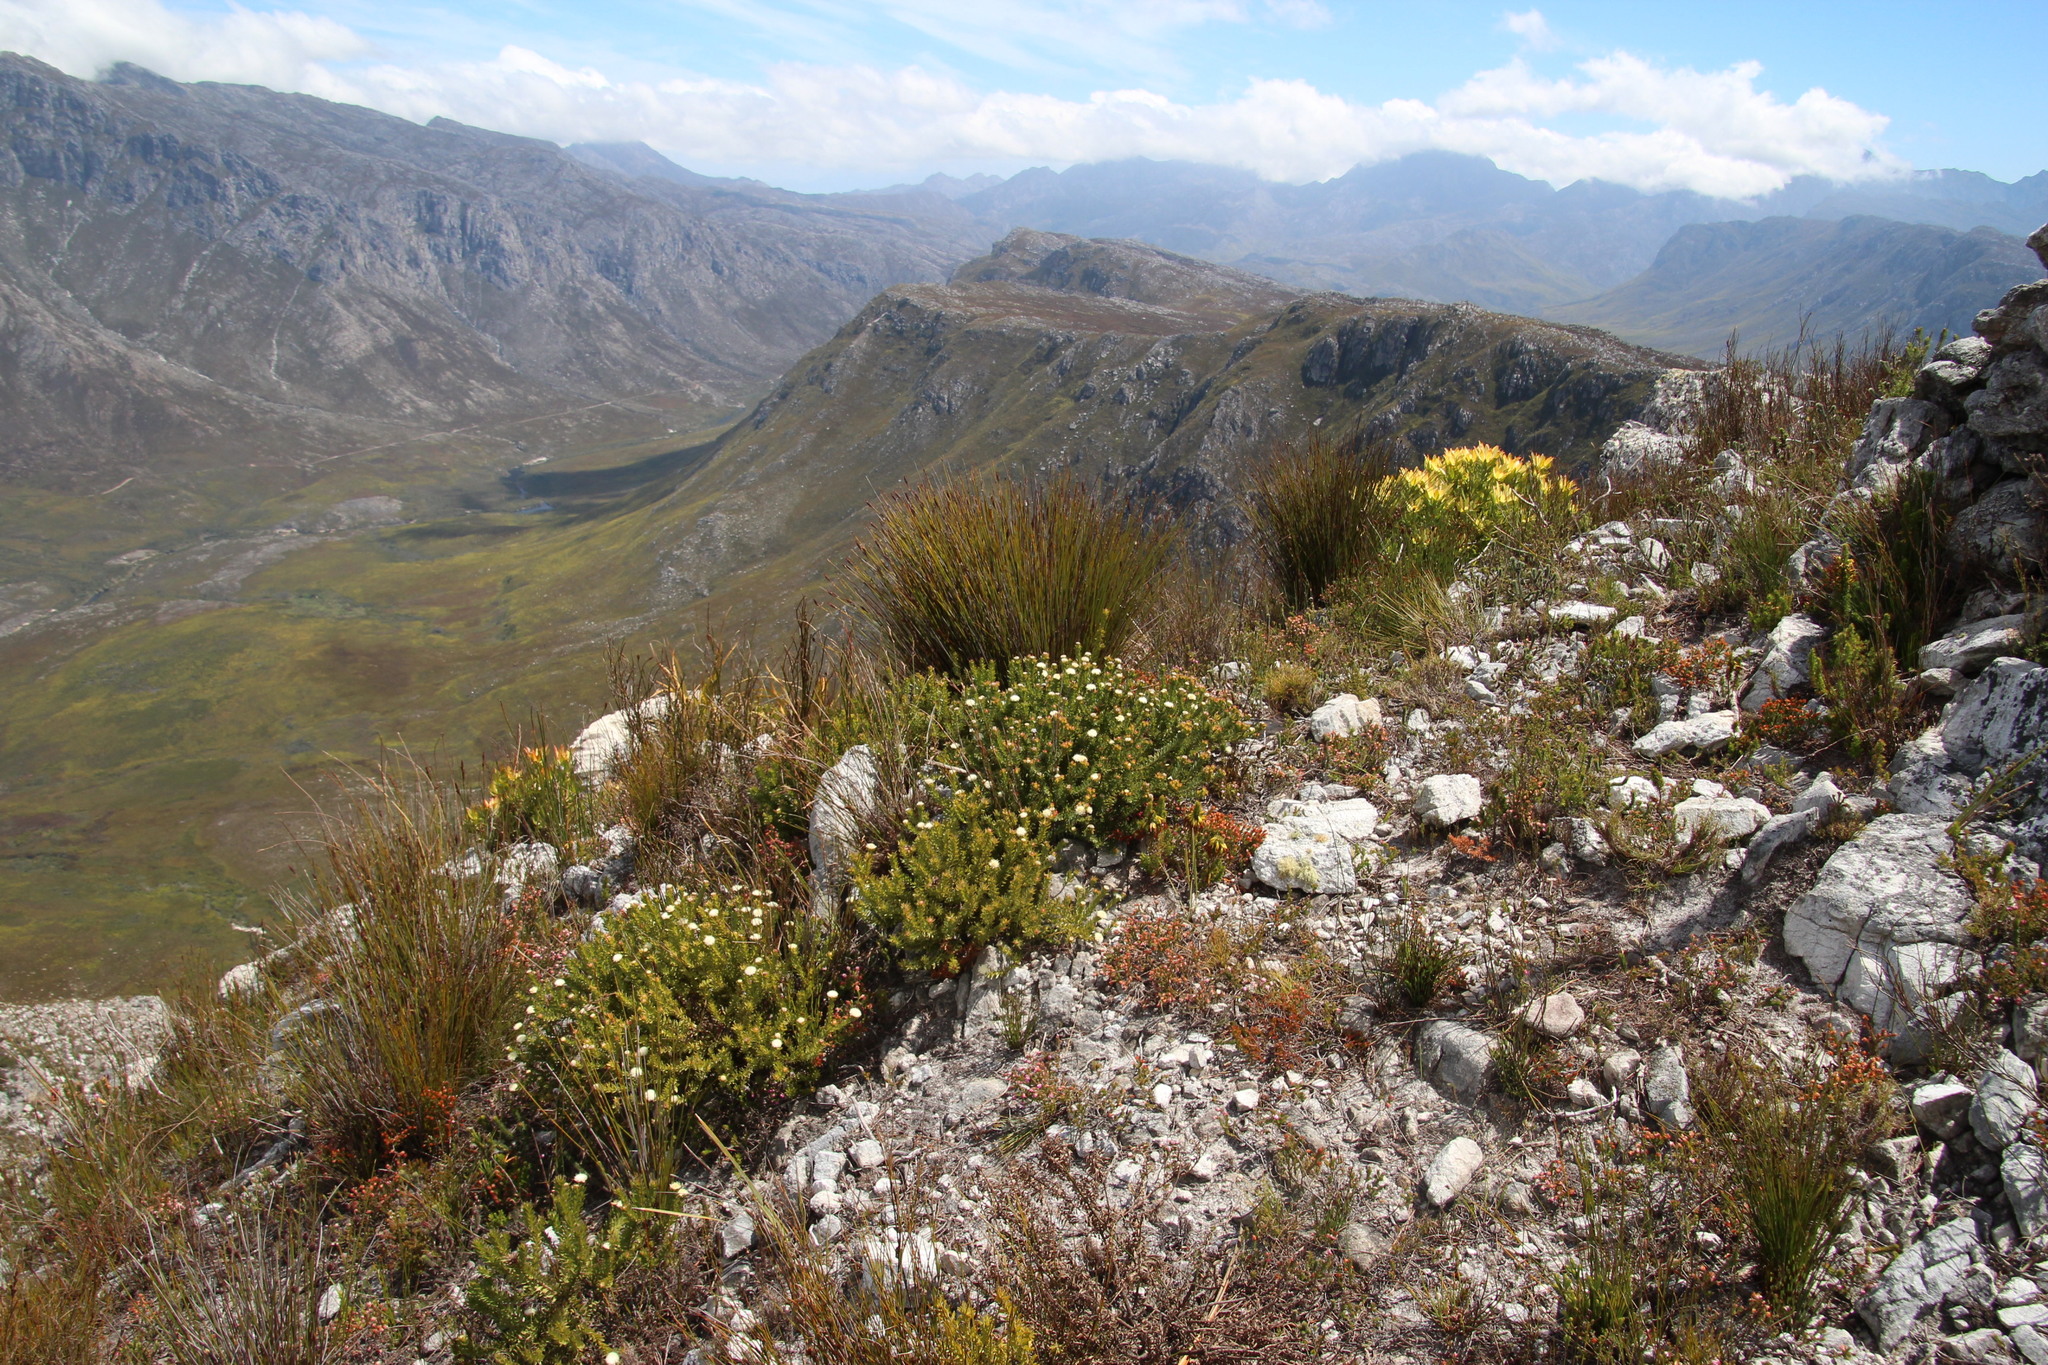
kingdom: Plantae
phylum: Tracheophyta
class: Magnoliopsida
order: Proteales
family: Proteaceae
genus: Diastella
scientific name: Diastella fraterna
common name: Palmiet silkypuff
